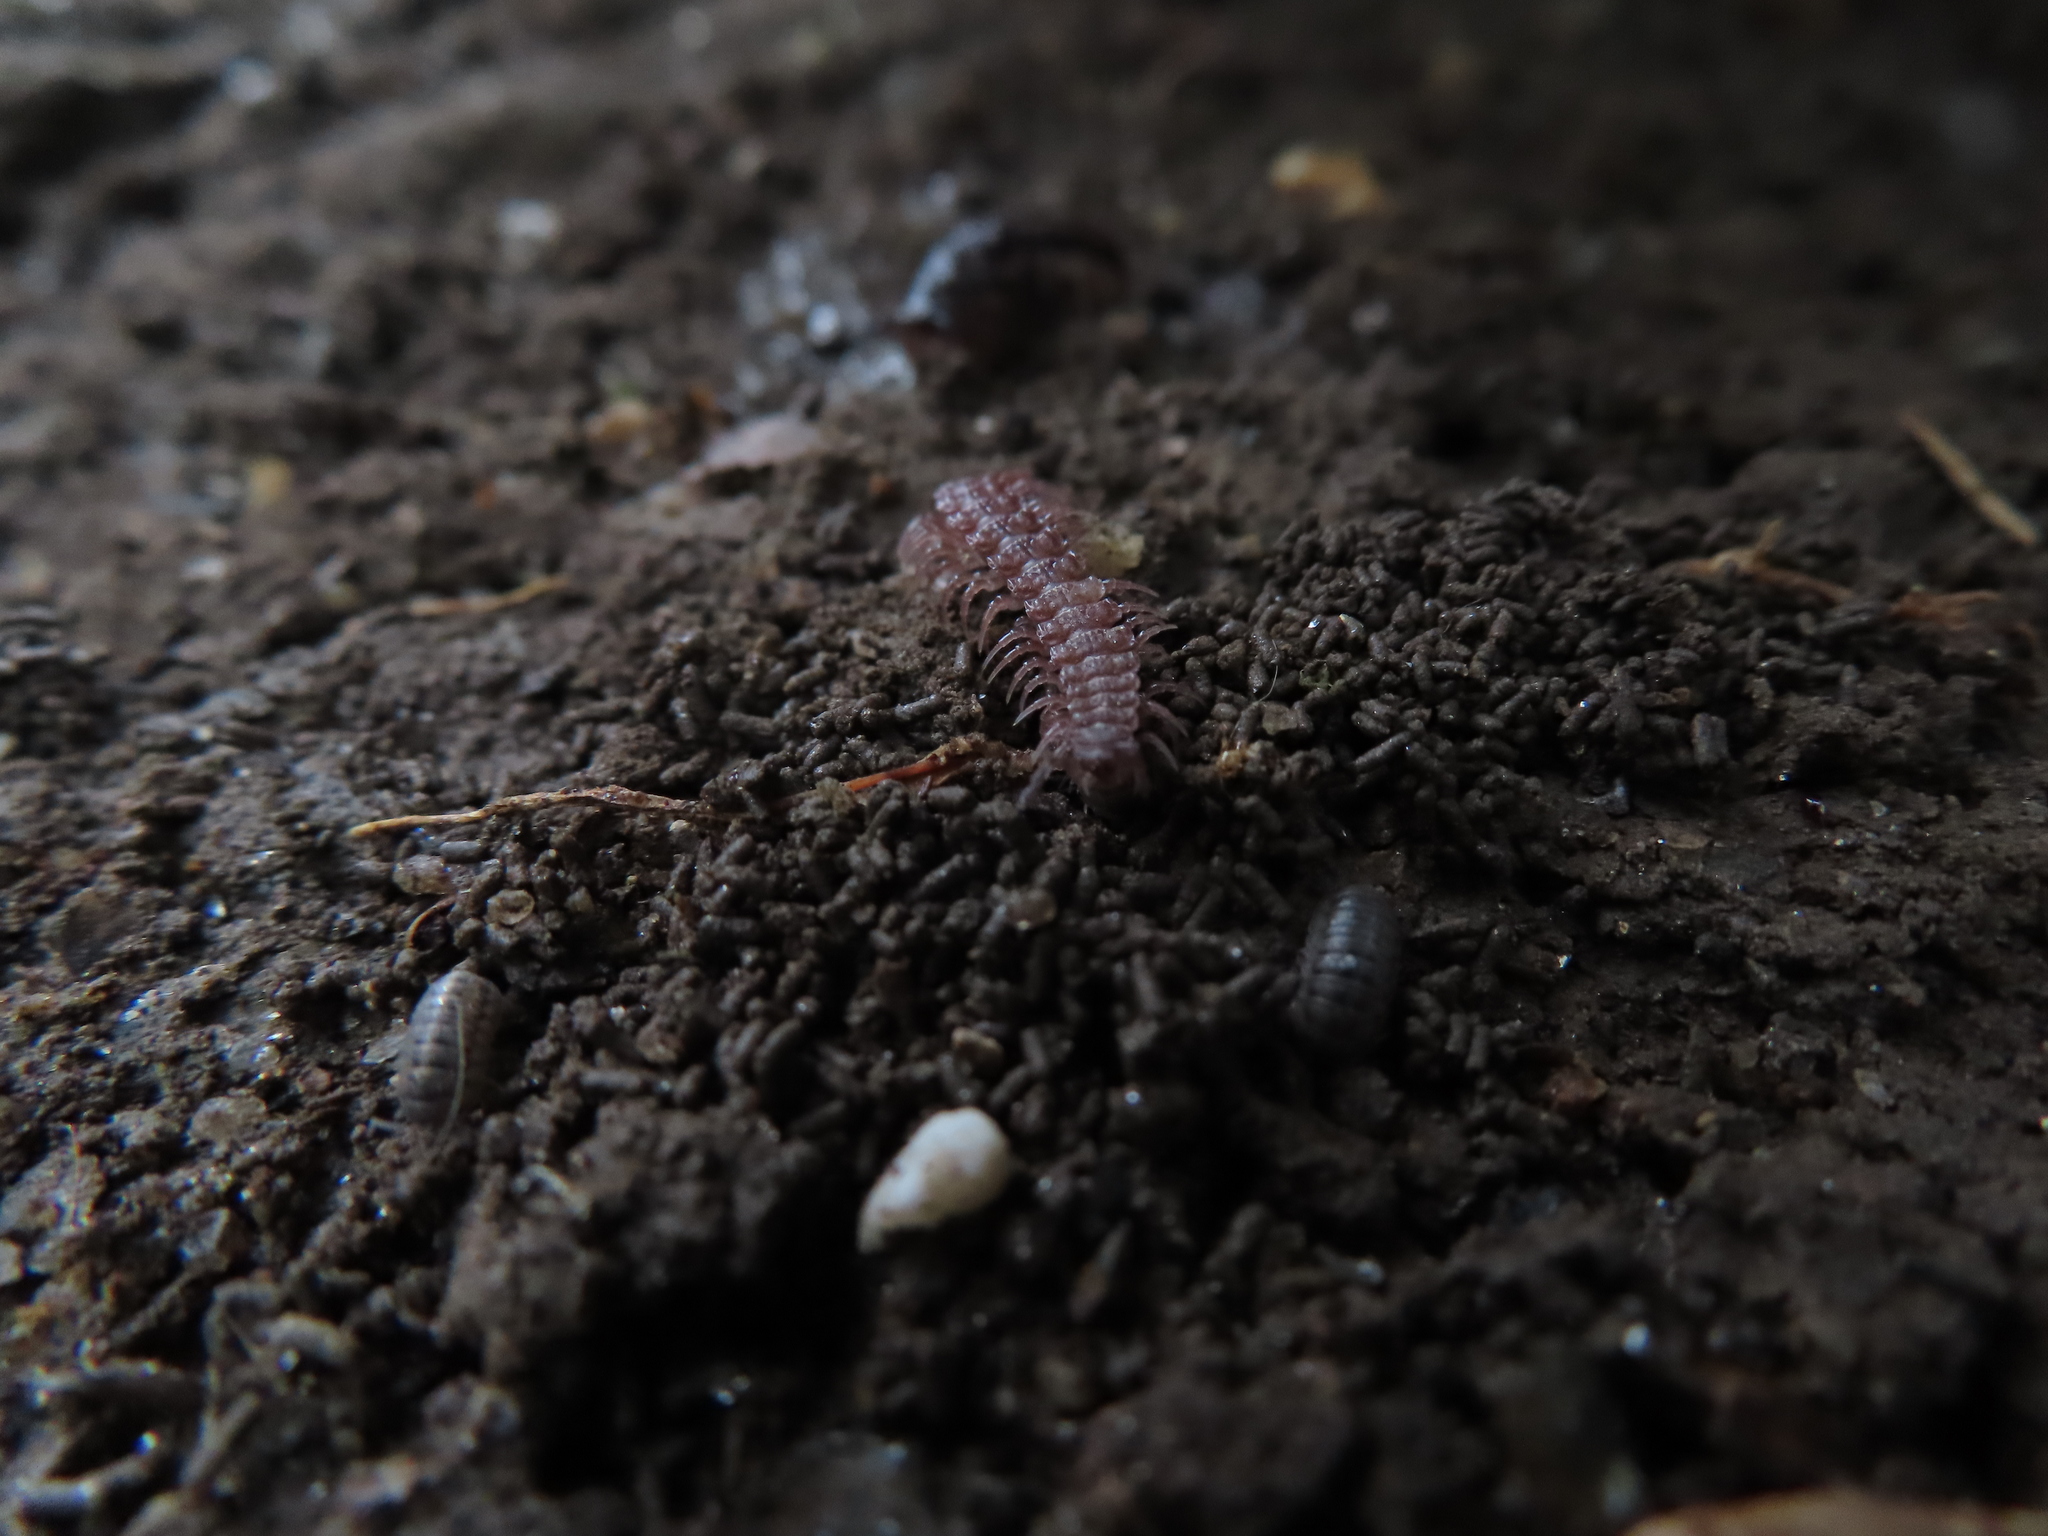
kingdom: Animalia
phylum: Arthropoda
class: Malacostraca
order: Isopoda
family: Armadillidiidae
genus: Armadillidium
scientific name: Armadillidium nasatum
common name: Isopod
